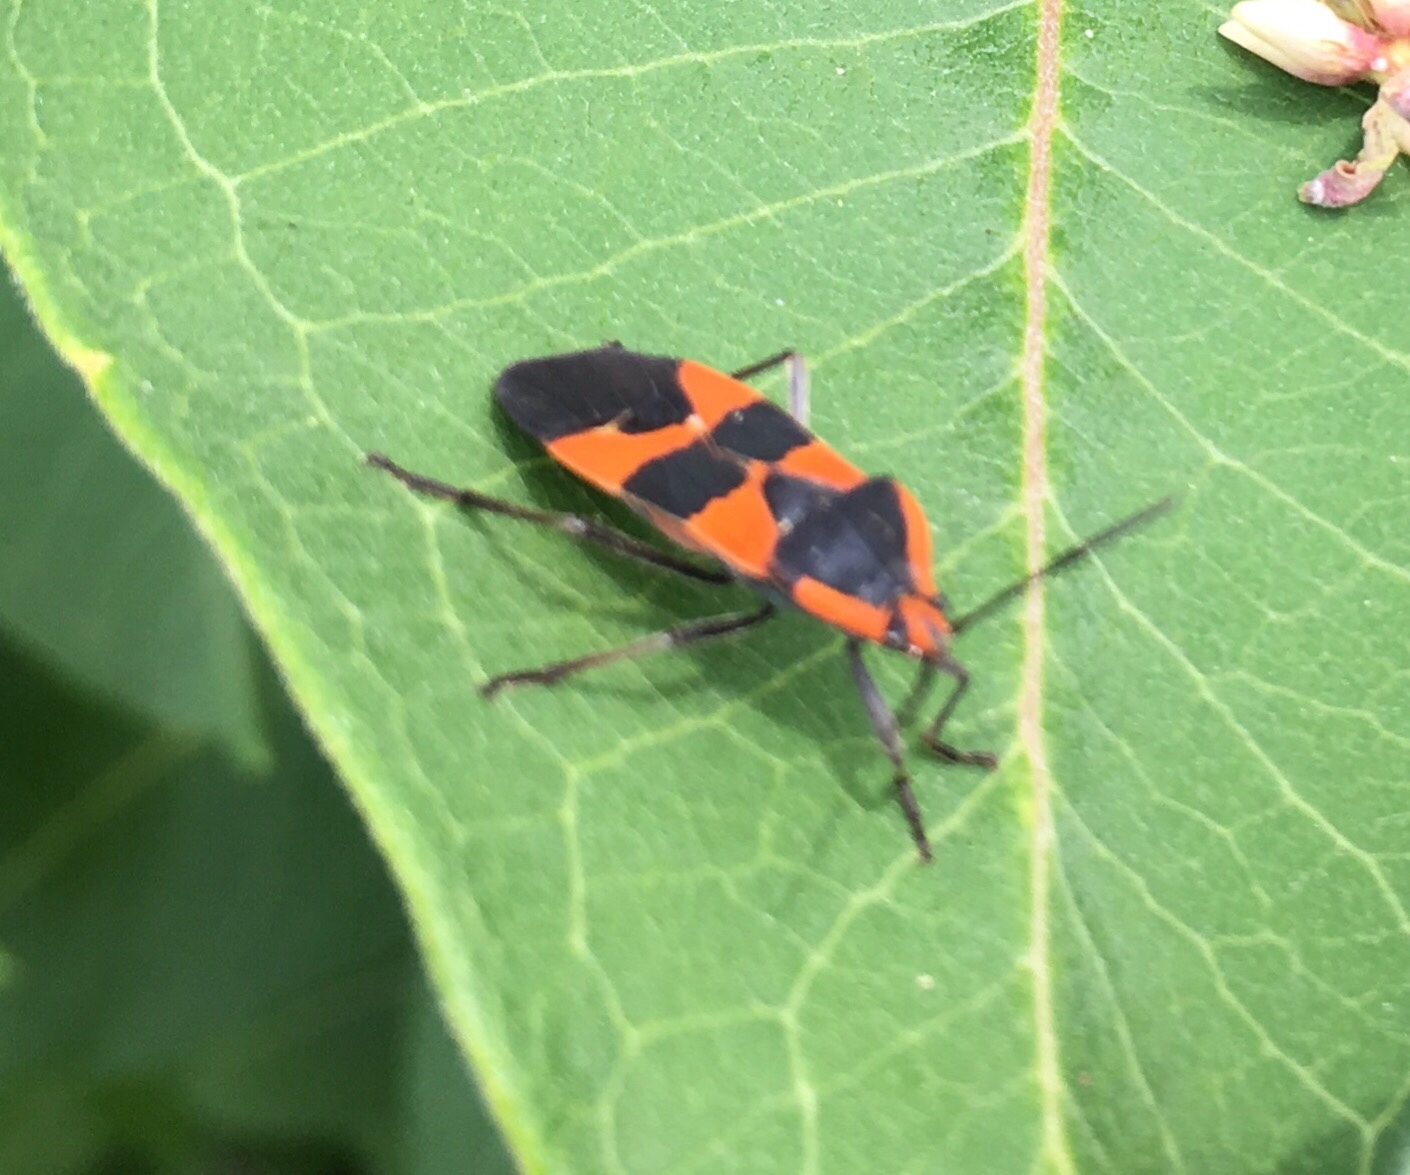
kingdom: Animalia
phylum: Arthropoda
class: Insecta
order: Hemiptera
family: Lygaeidae
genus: Oncopeltus
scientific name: Oncopeltus fasciatus
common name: Large milkweed bug
